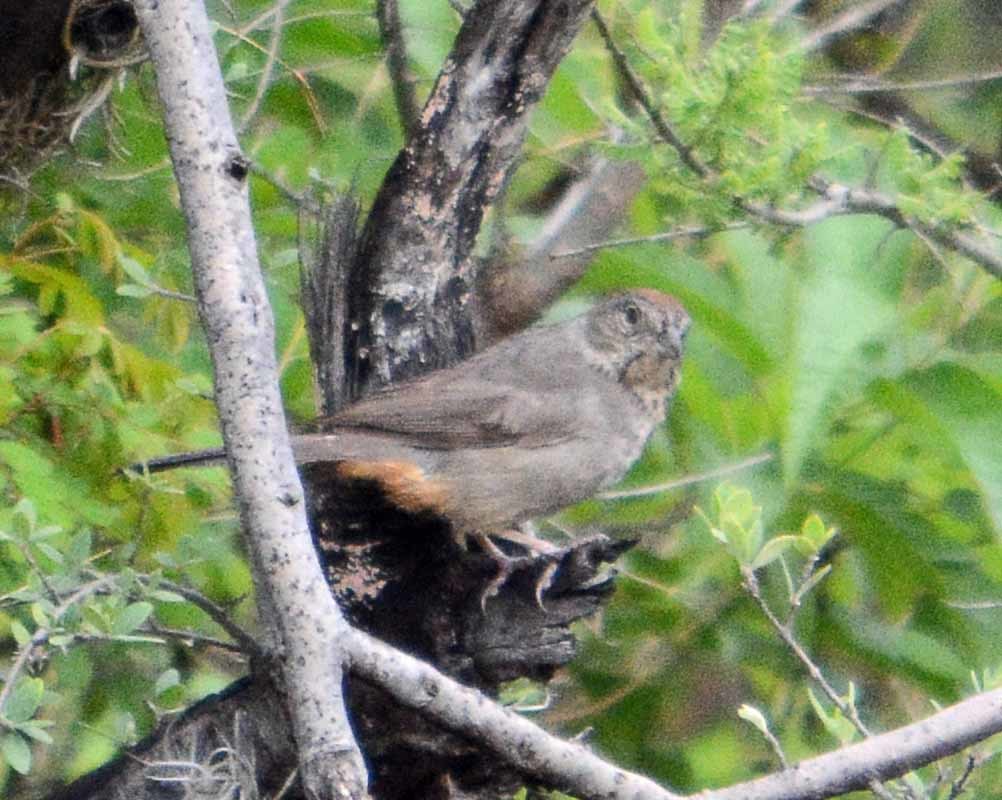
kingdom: Animalia
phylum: Chordata
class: Aves
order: Passeriformes
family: Passerellidae
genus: Melozone
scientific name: Melozone fusca
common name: Canyon towhee
